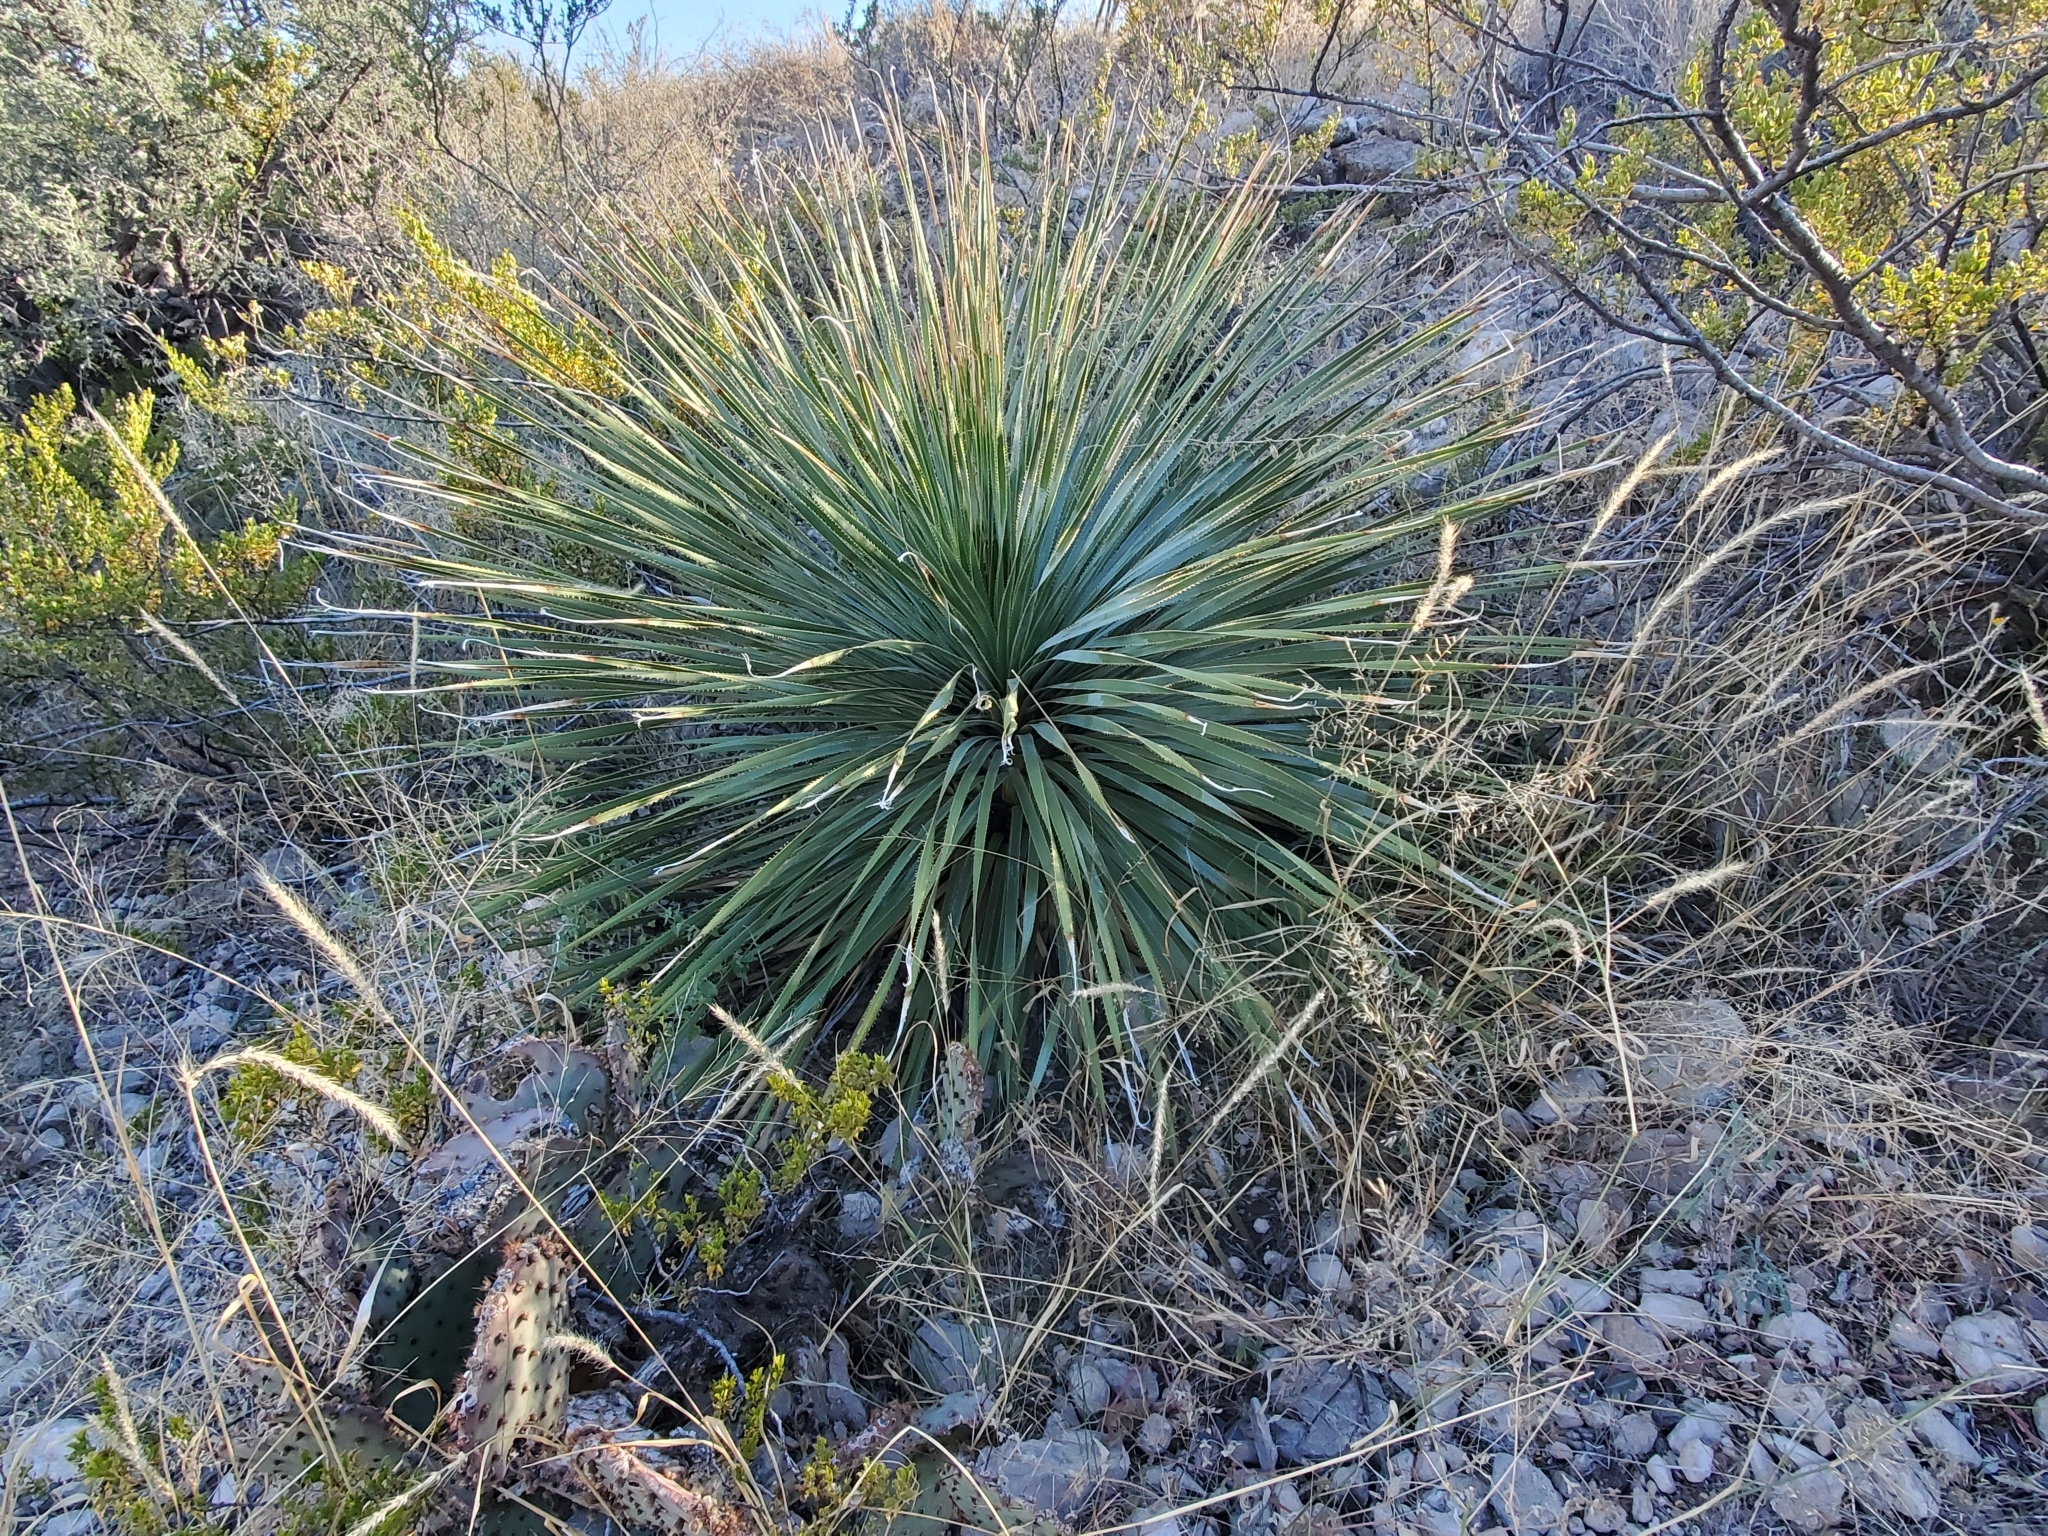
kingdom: Plantae
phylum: Tracheophyta
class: Liliopsida
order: Asparagales
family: Asparagaceae
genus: Dasylirion
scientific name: Dasylirion wheeleri
